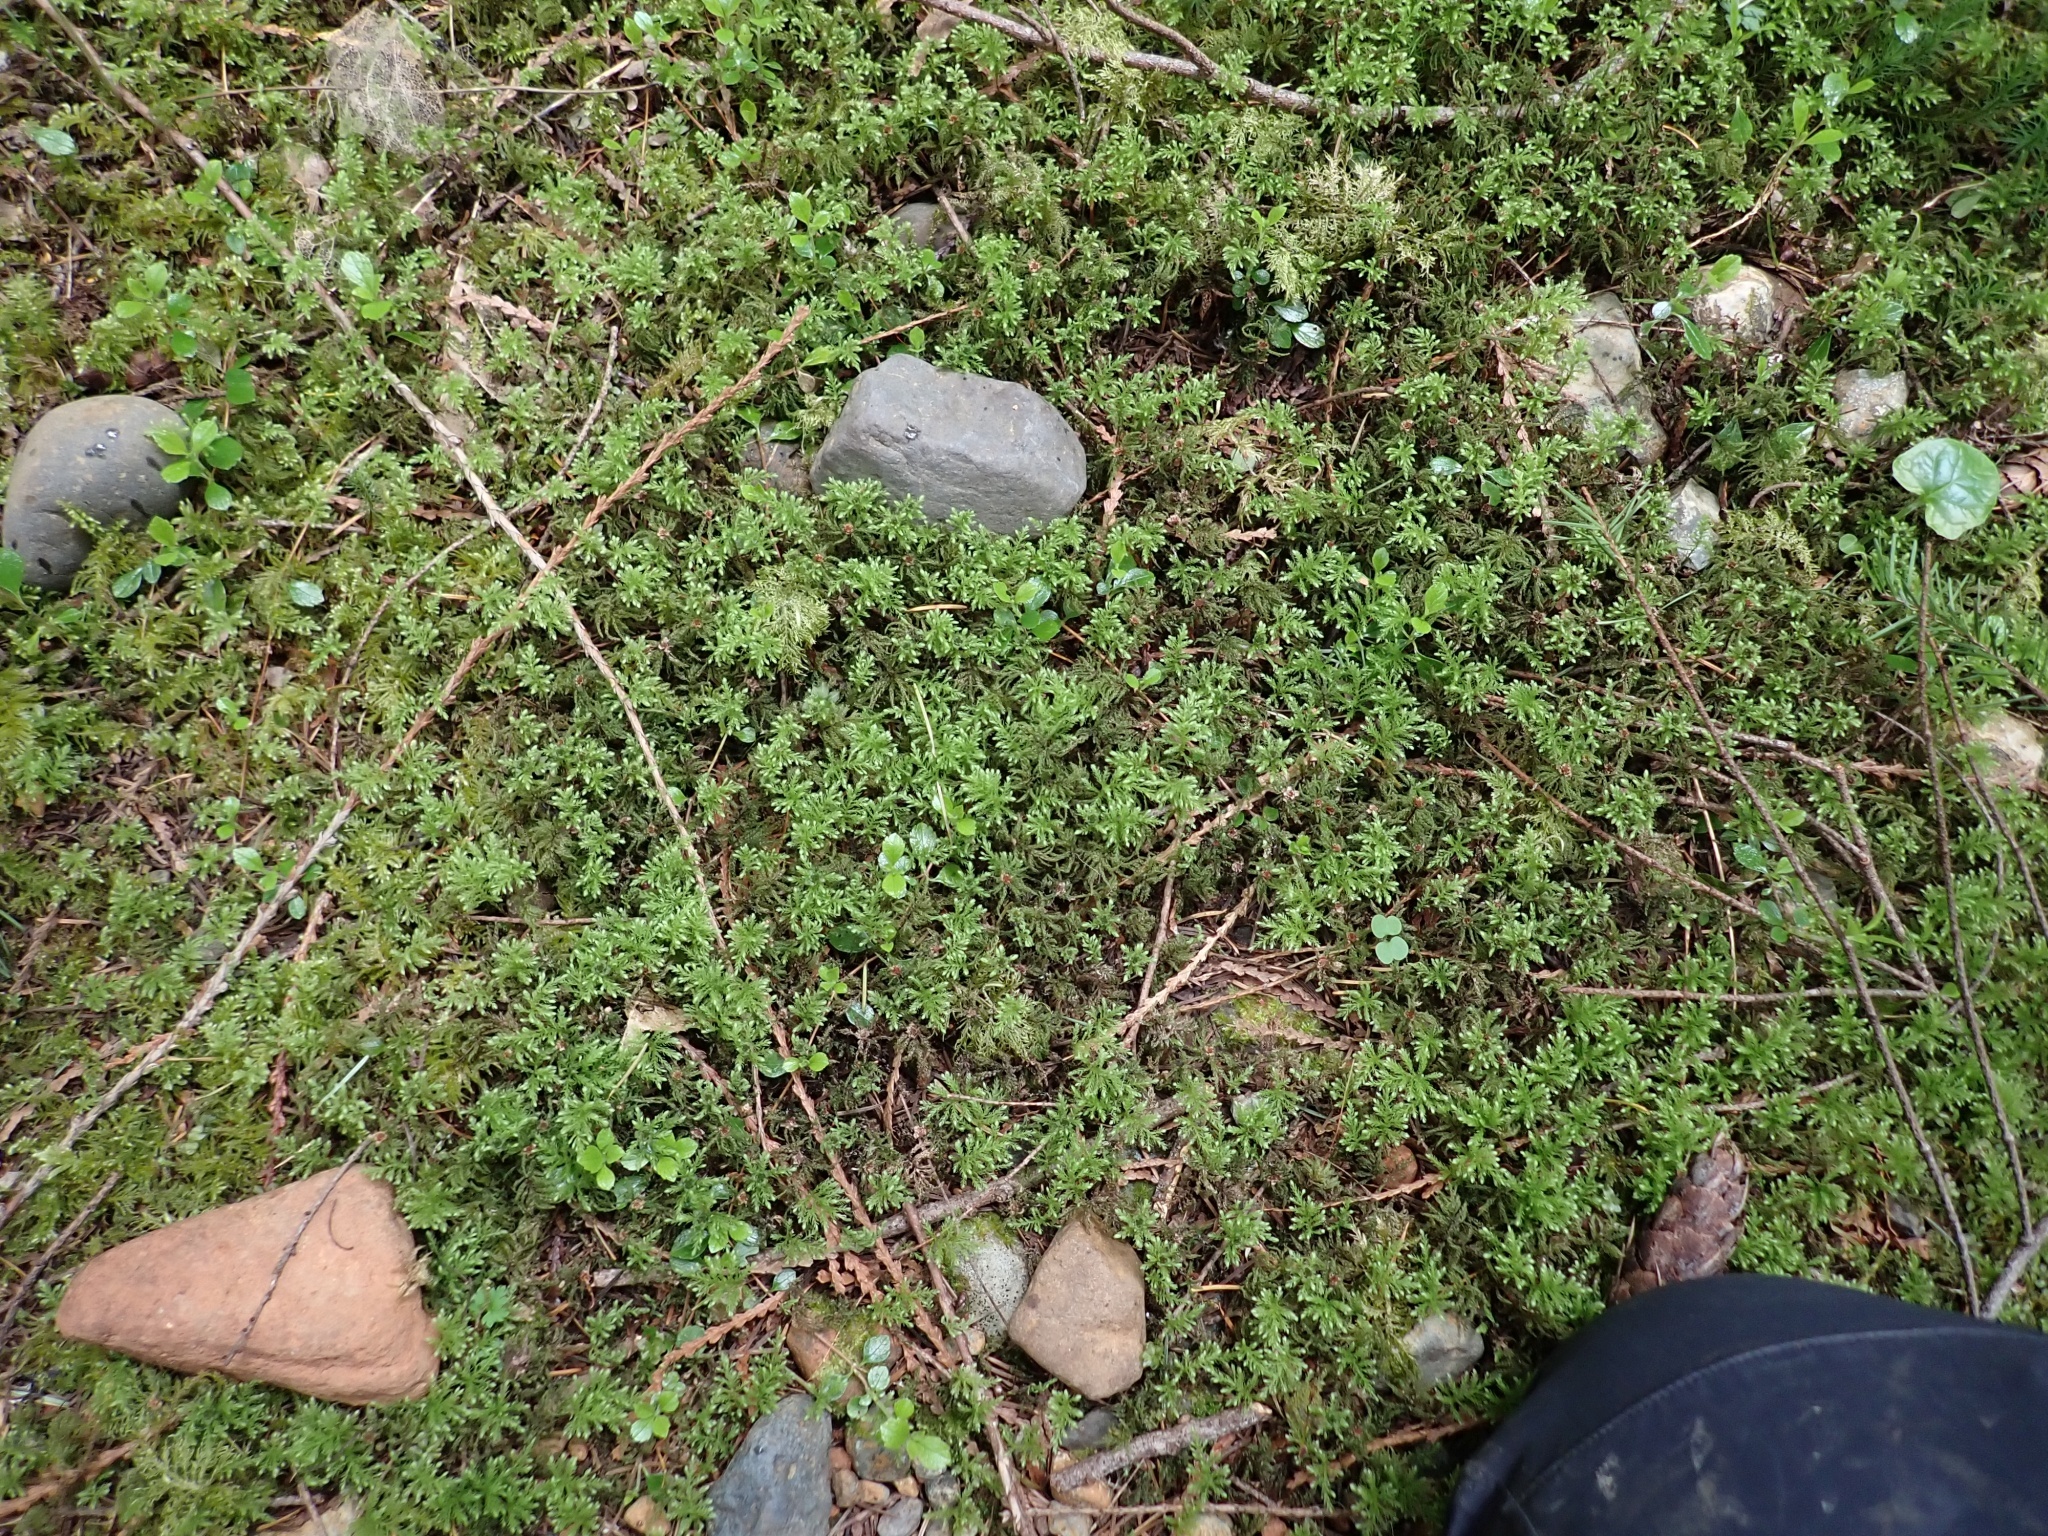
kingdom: Plantae
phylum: Bryophyta
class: Bryopsida
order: Bryales
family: Mniaceae
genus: Leucolepis
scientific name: Leucolepis acanthoneura
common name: Leucolepis umbrella moss
